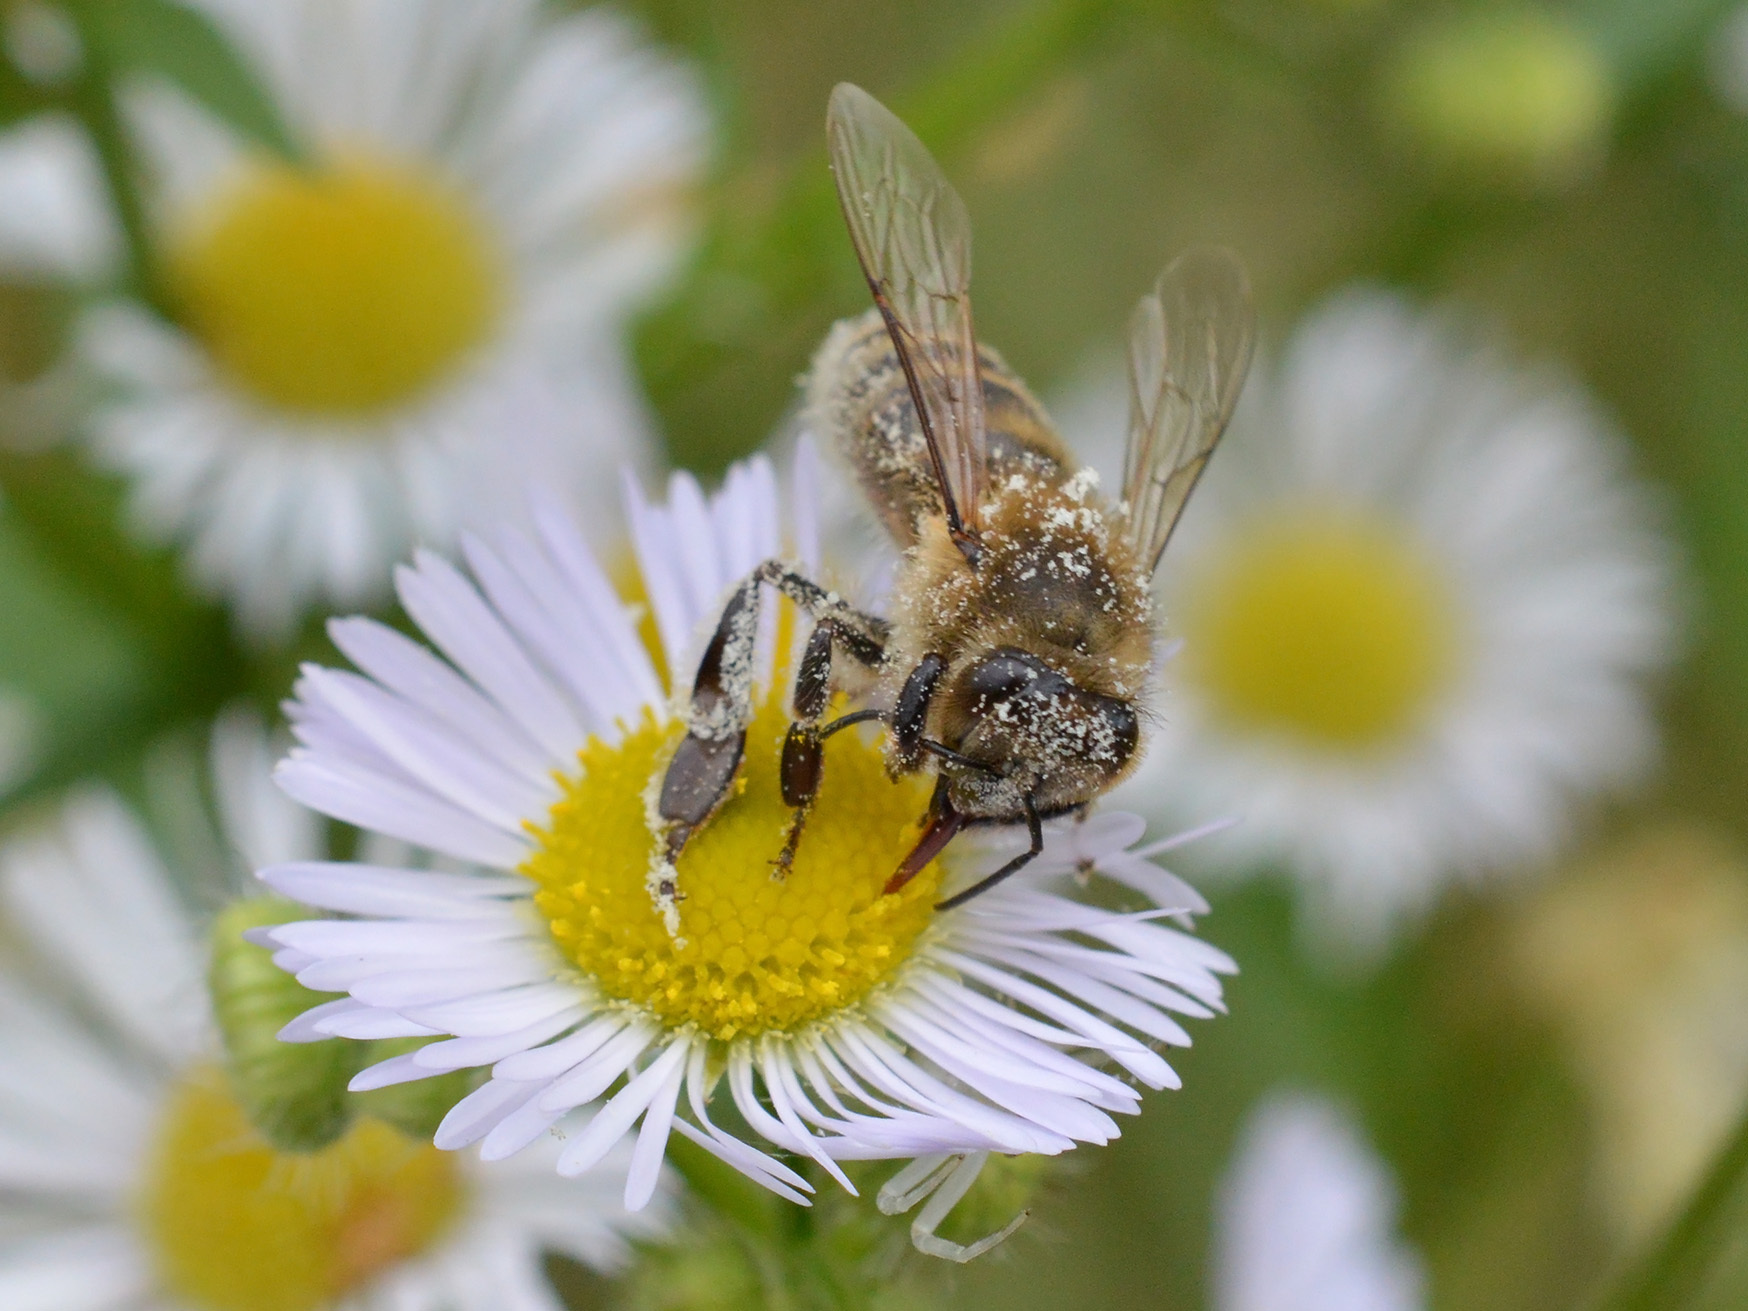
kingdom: Animalia
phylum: Arthropoda
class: Insecta
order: Hymenoptera
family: Apidae
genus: Apis
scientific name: Apis mellifera
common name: Honey bee
